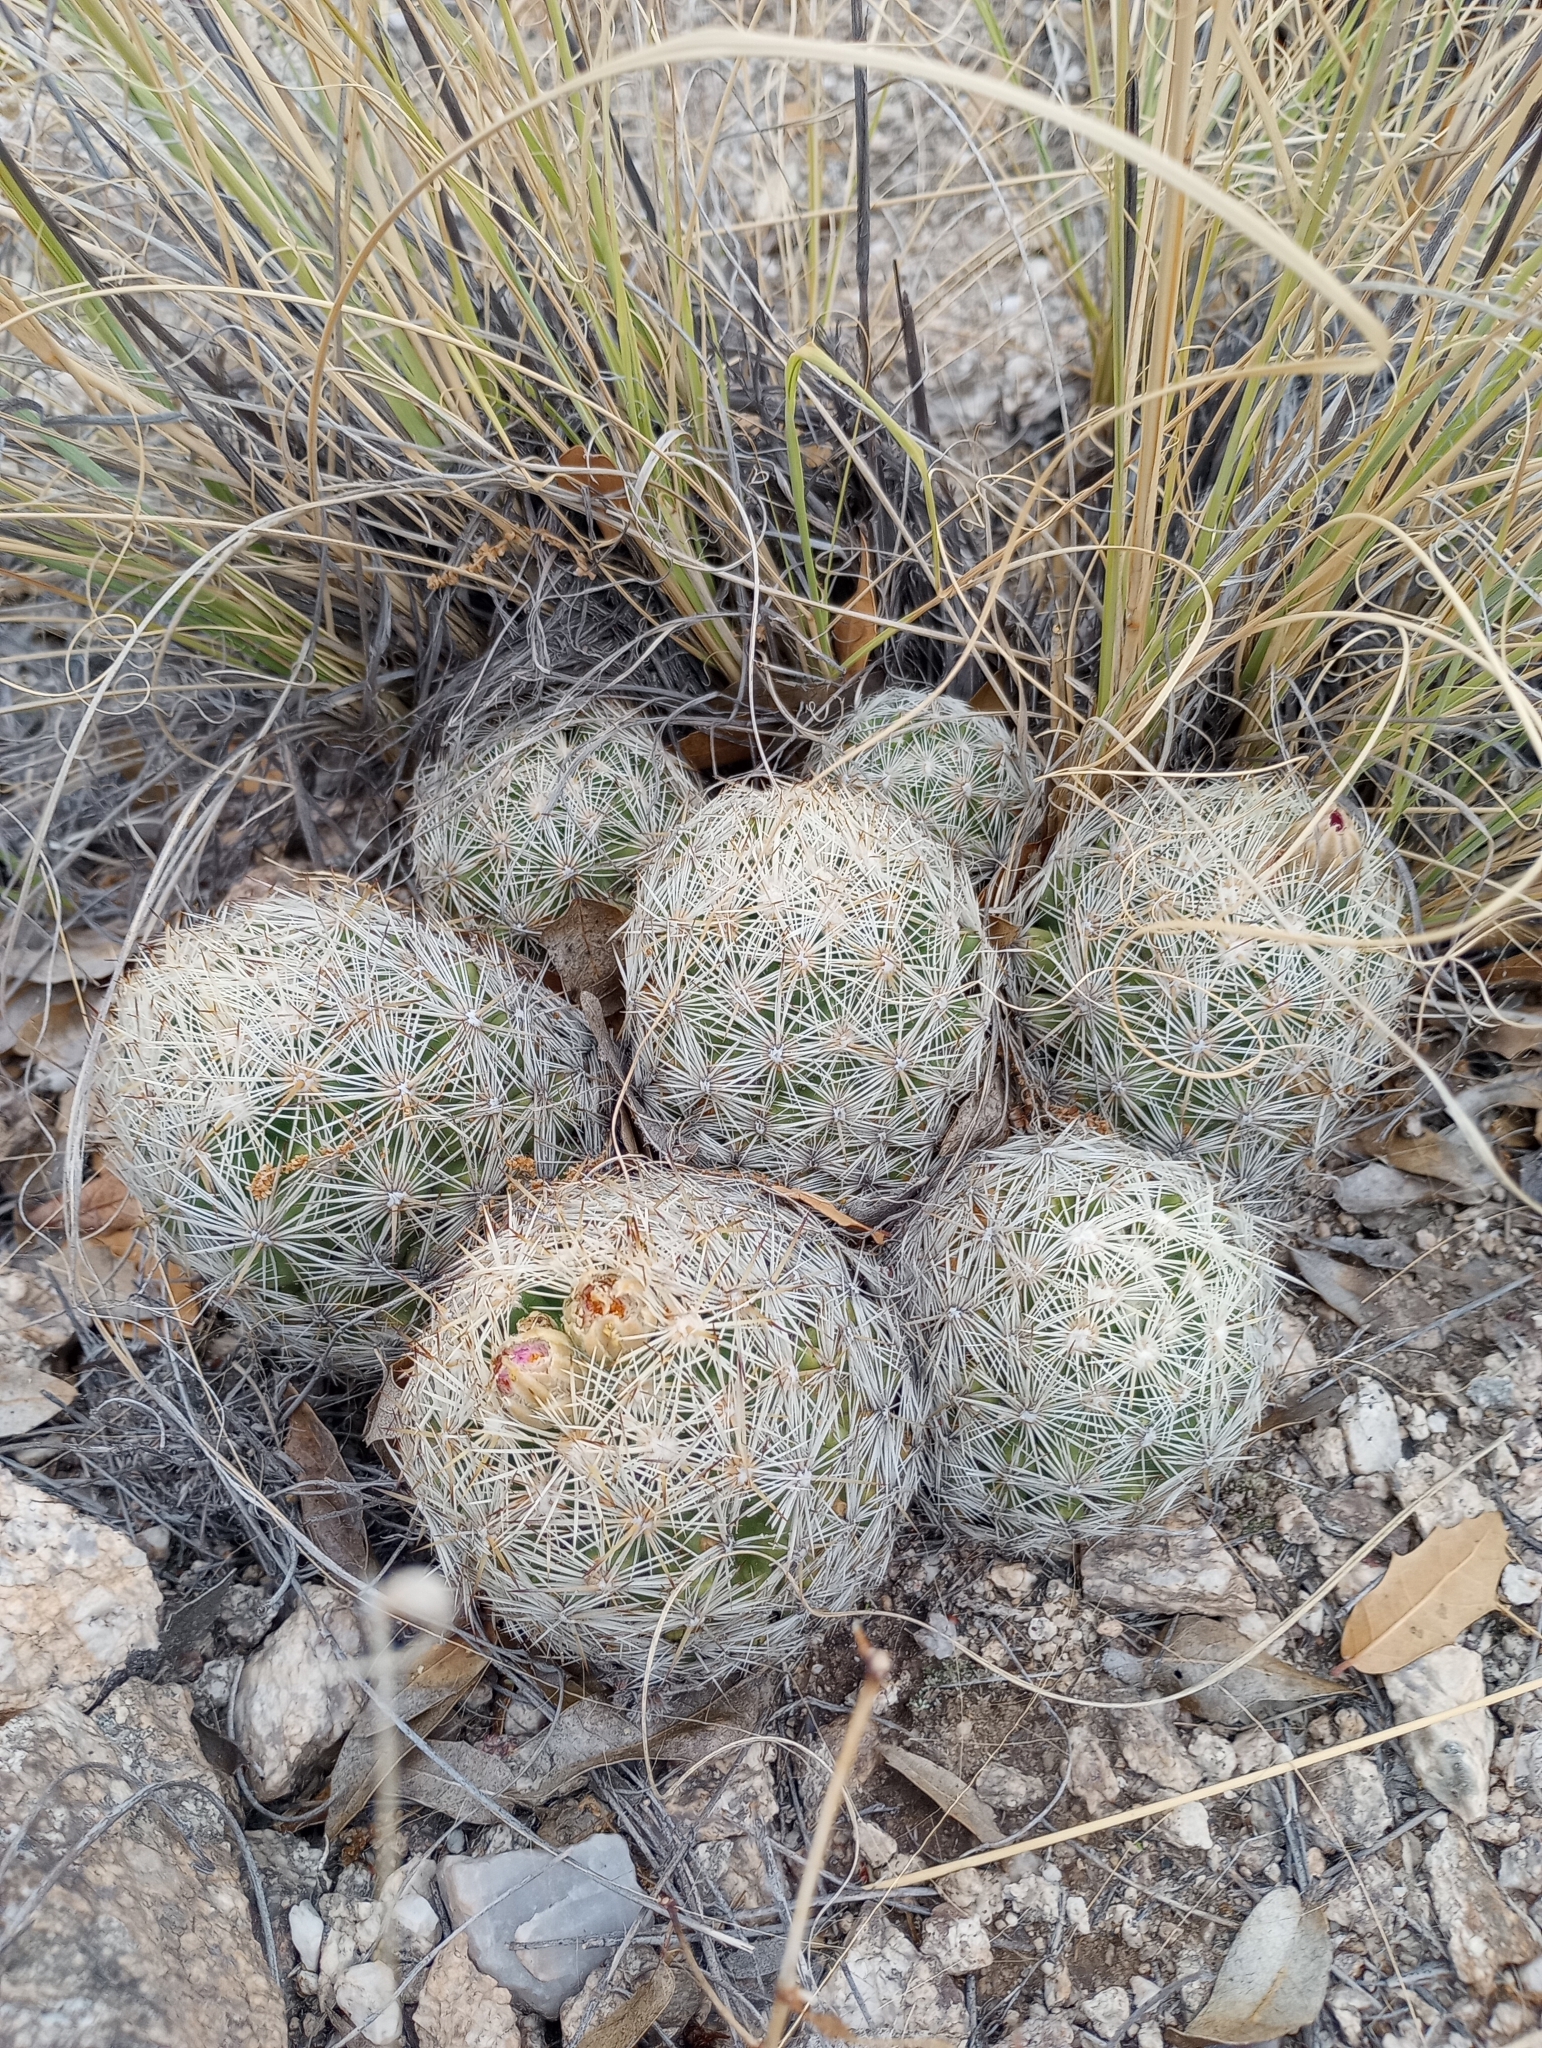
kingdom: Plantae
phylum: Tracheophyta
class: Magnoliopsida
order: Caryophyllales
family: Cactaceae
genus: Pelecyphora
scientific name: Pelecyphora vivipara
